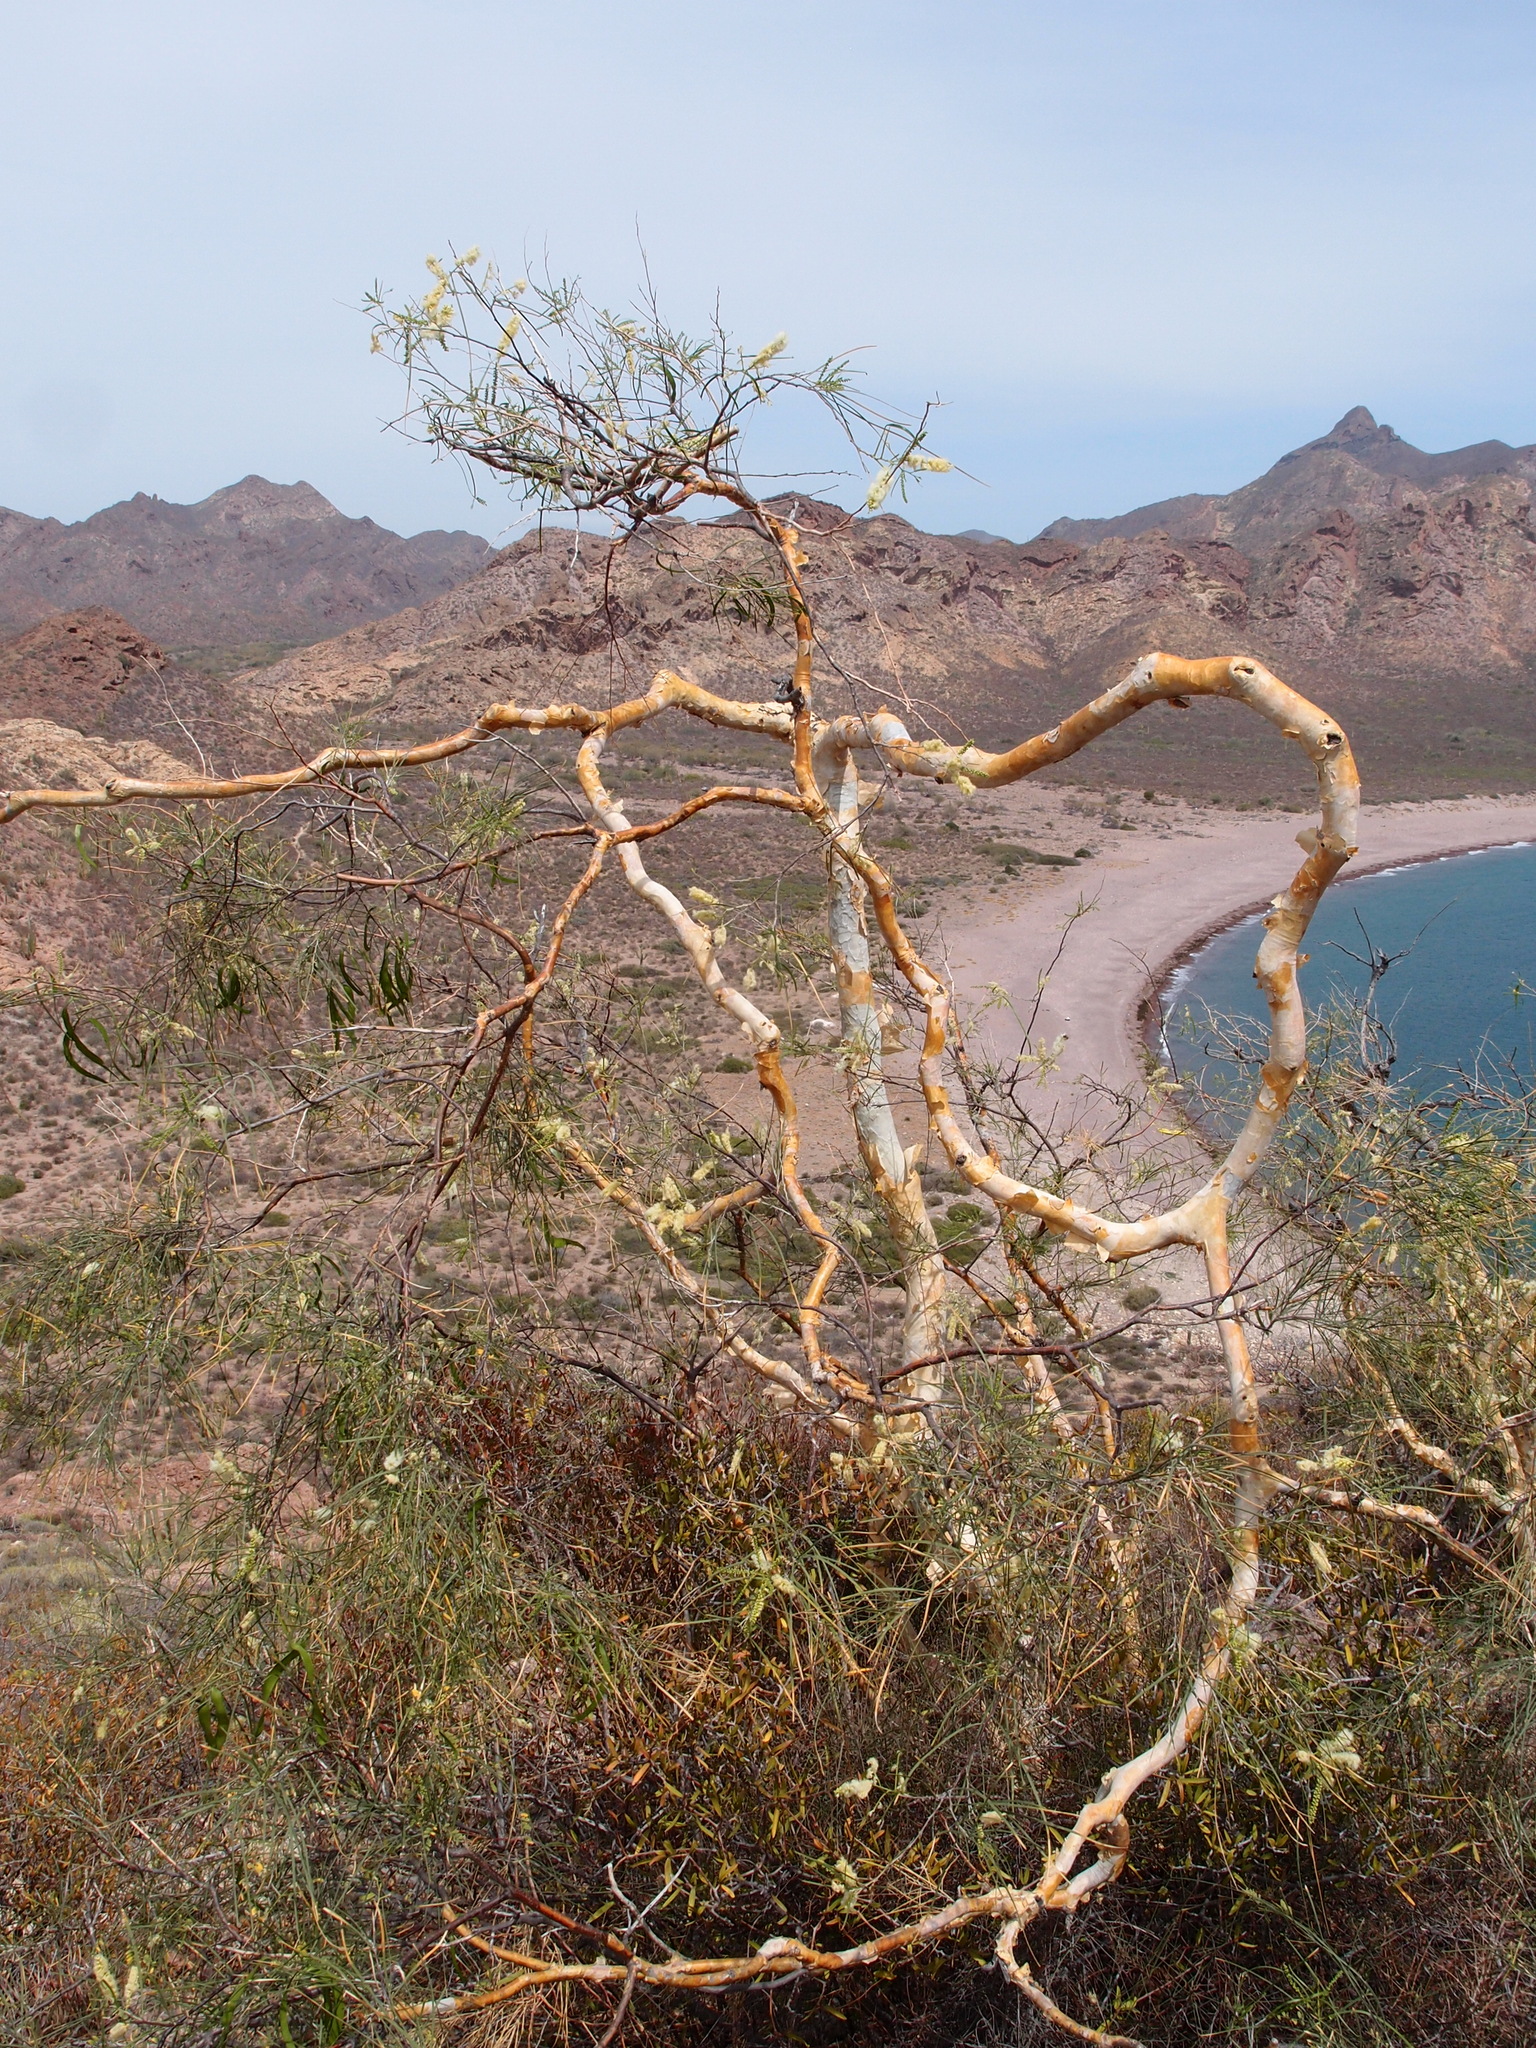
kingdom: Plantae
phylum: Tracheophyta
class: Magnoliopsida
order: Fabales
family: Fabaceae
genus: Mariosousa
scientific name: Mariosousa heterophylla
